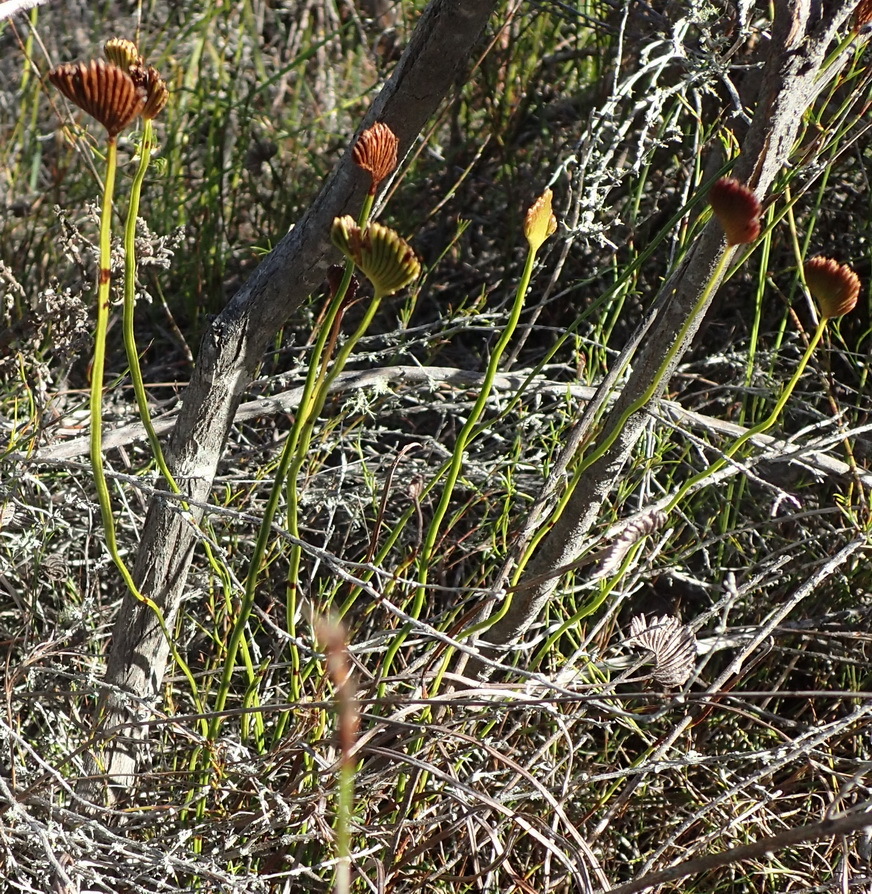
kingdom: Plantae
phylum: Tracheophyta
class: Polypodiopsida
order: Schizaeales
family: Schizaeaceae
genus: Schizaea
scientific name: Schizaea pectinata
